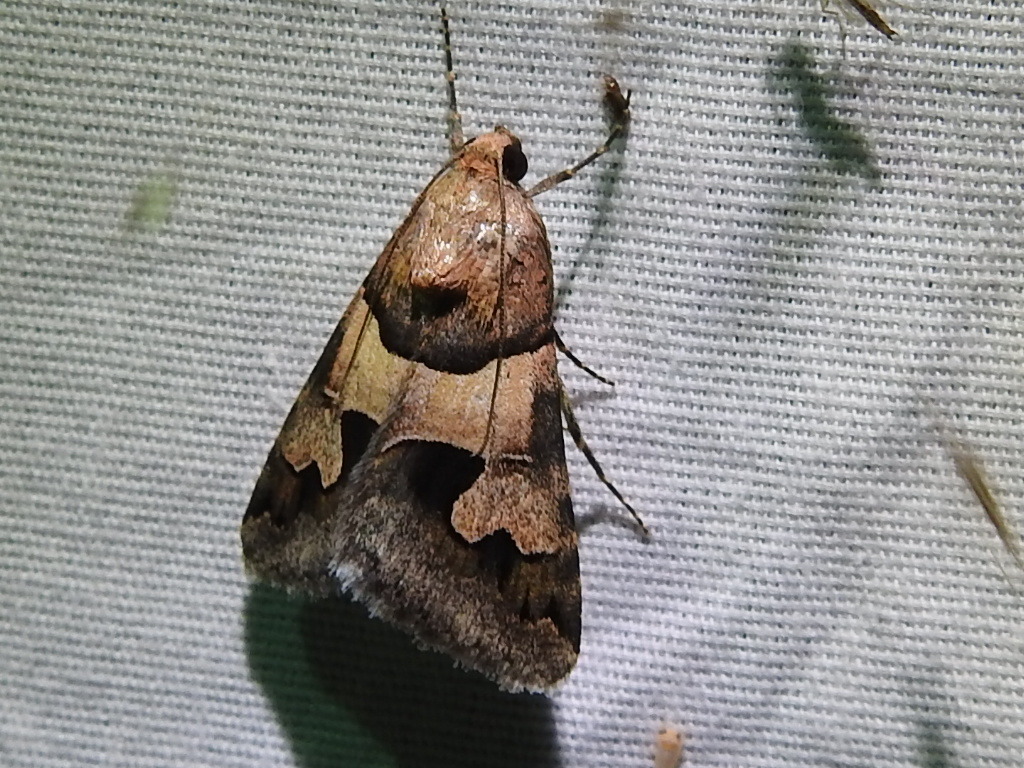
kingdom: Animalia
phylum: Arthropoda
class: Insecta
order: Lepidoptera
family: Erebidae
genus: Drasteria
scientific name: Drasteria pallescens
